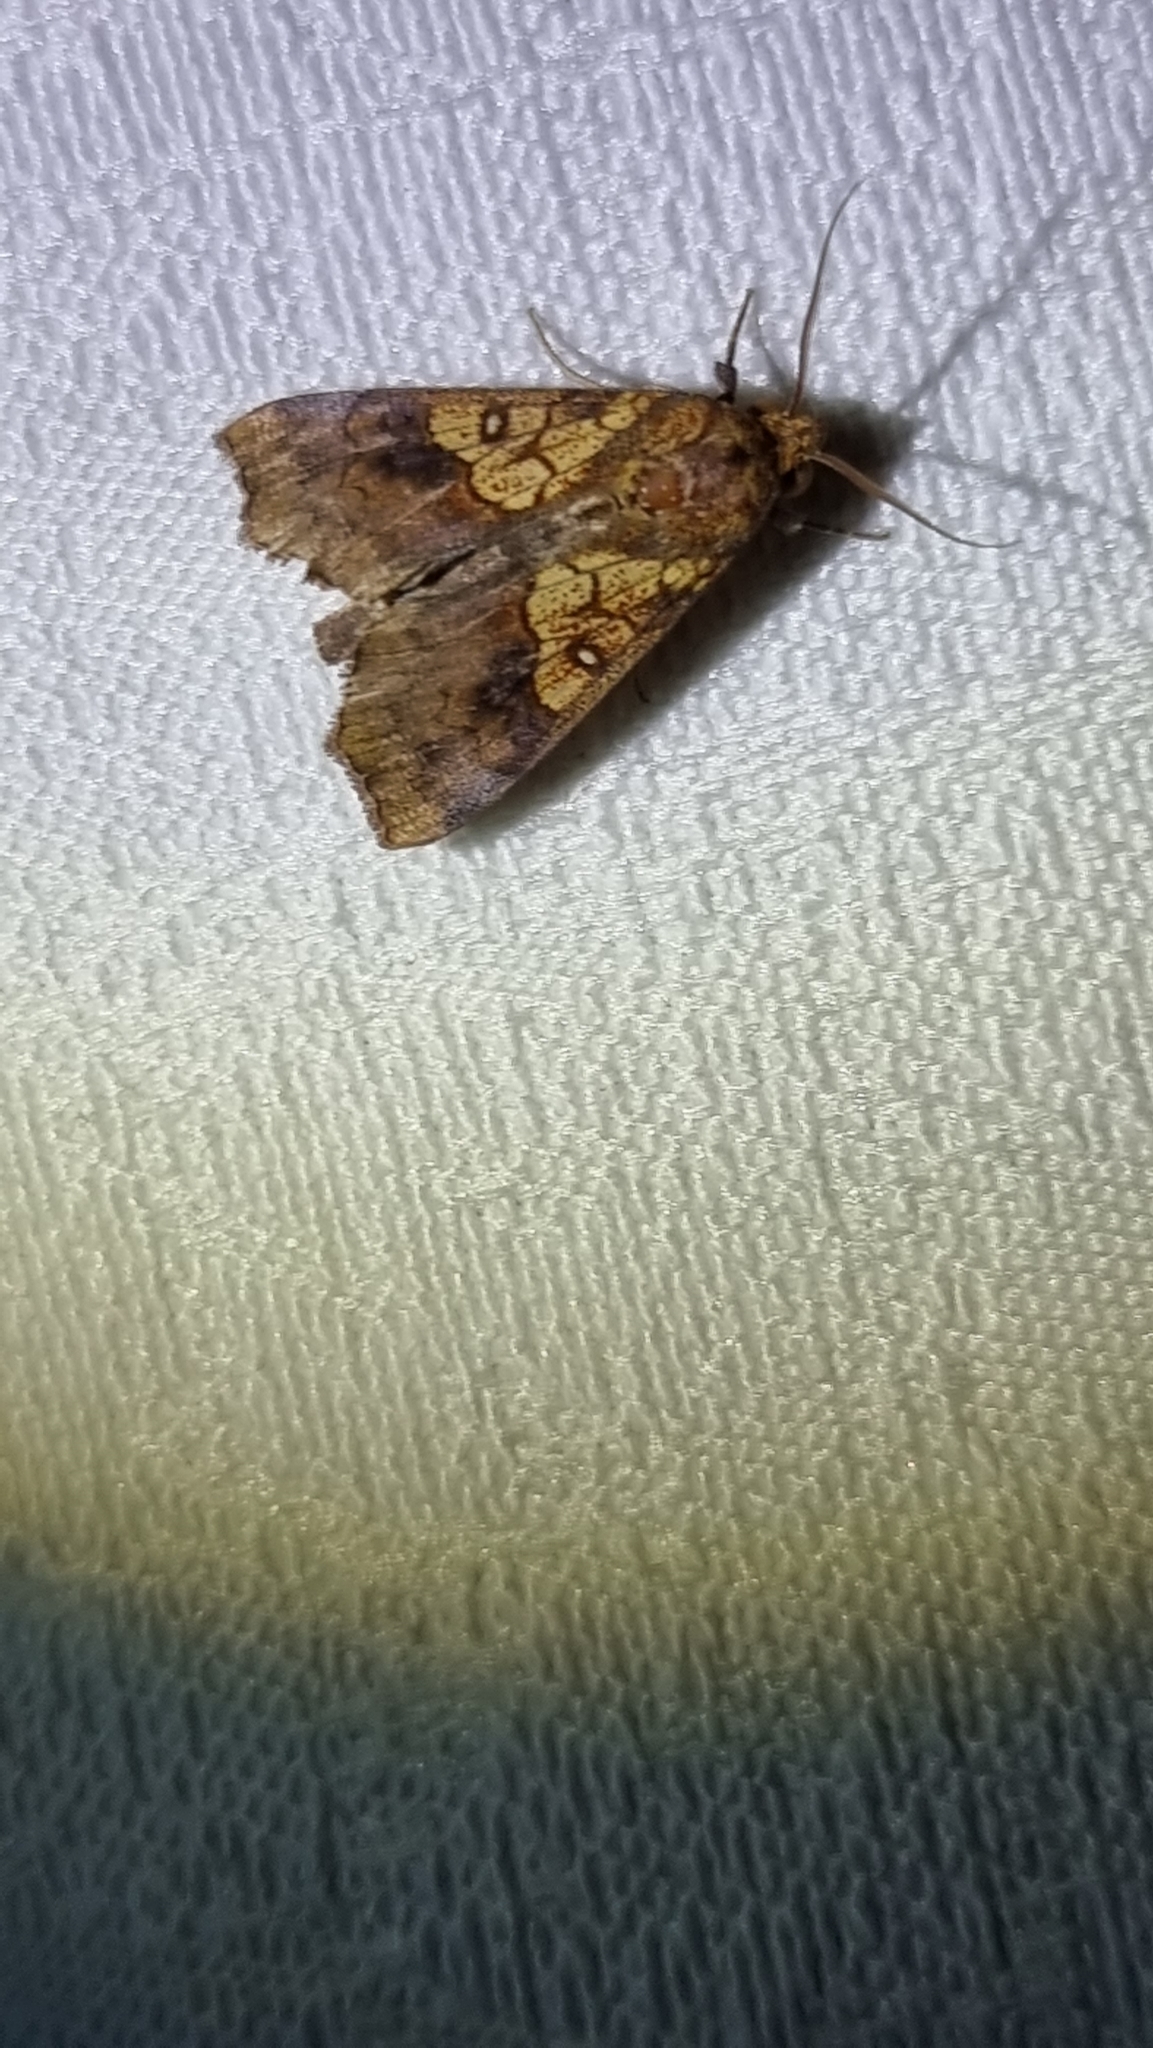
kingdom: Animalia
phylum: Arthropoda
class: Insecta
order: Lepidoptera
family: Erebidae
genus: Anomis
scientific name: Anomis flava
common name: Moth
